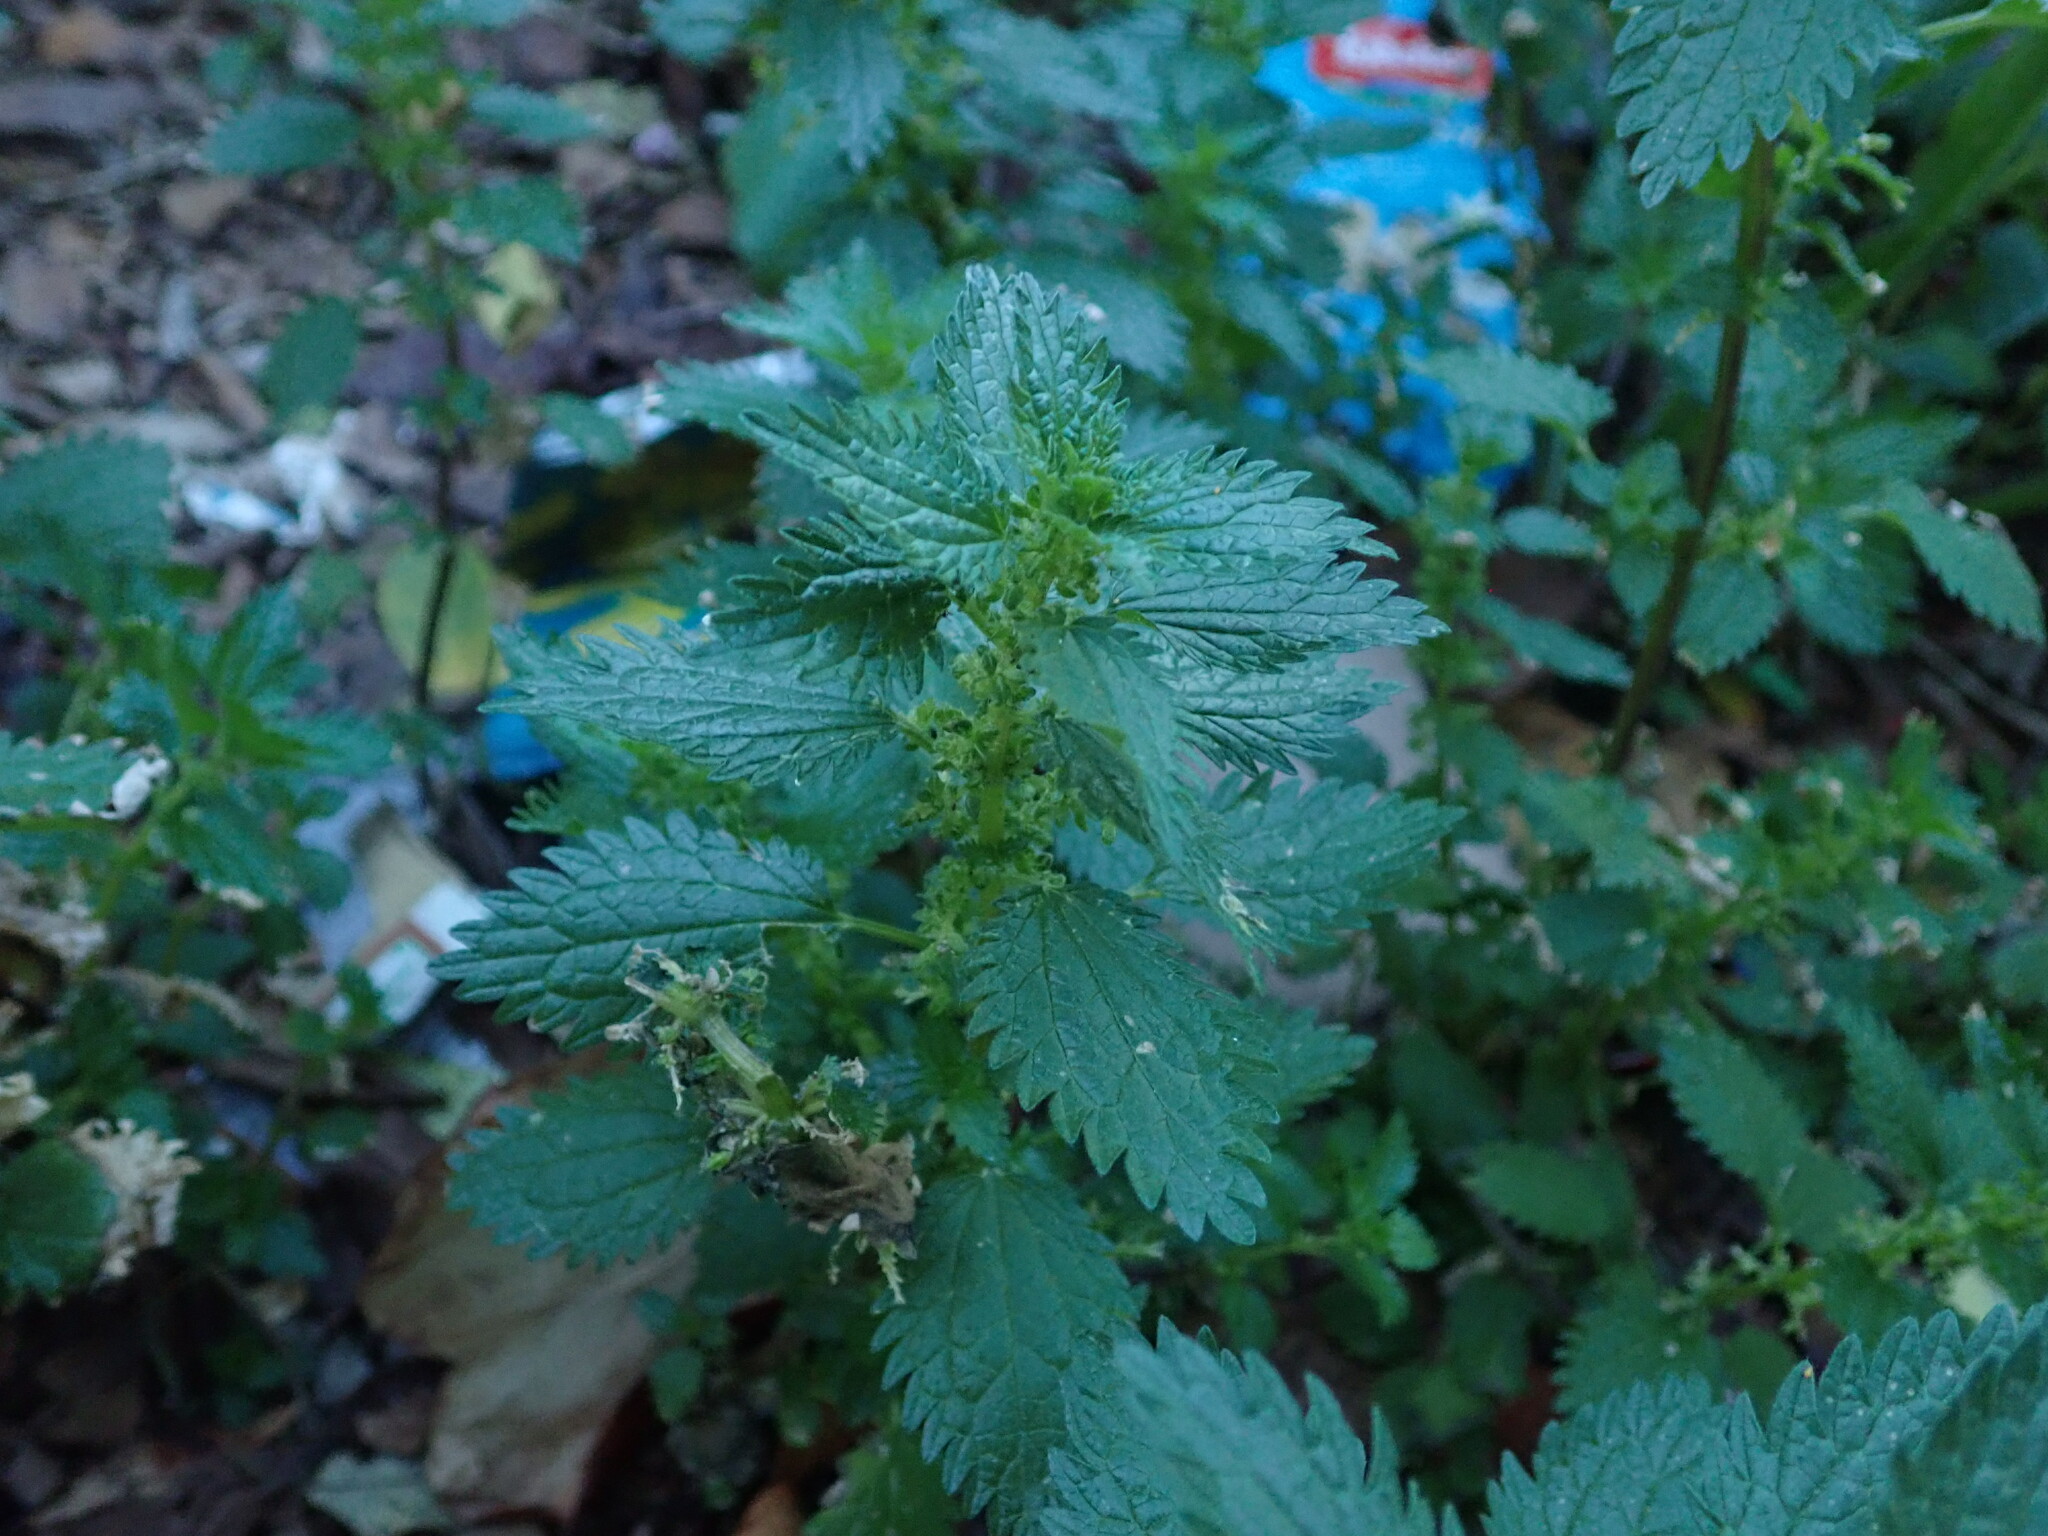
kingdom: Plantae
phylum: Tracheophyta
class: Magnoliopsida
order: Rosales
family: Urticaceae
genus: Urtica
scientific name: Urtica urens
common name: Dwarf nettle
